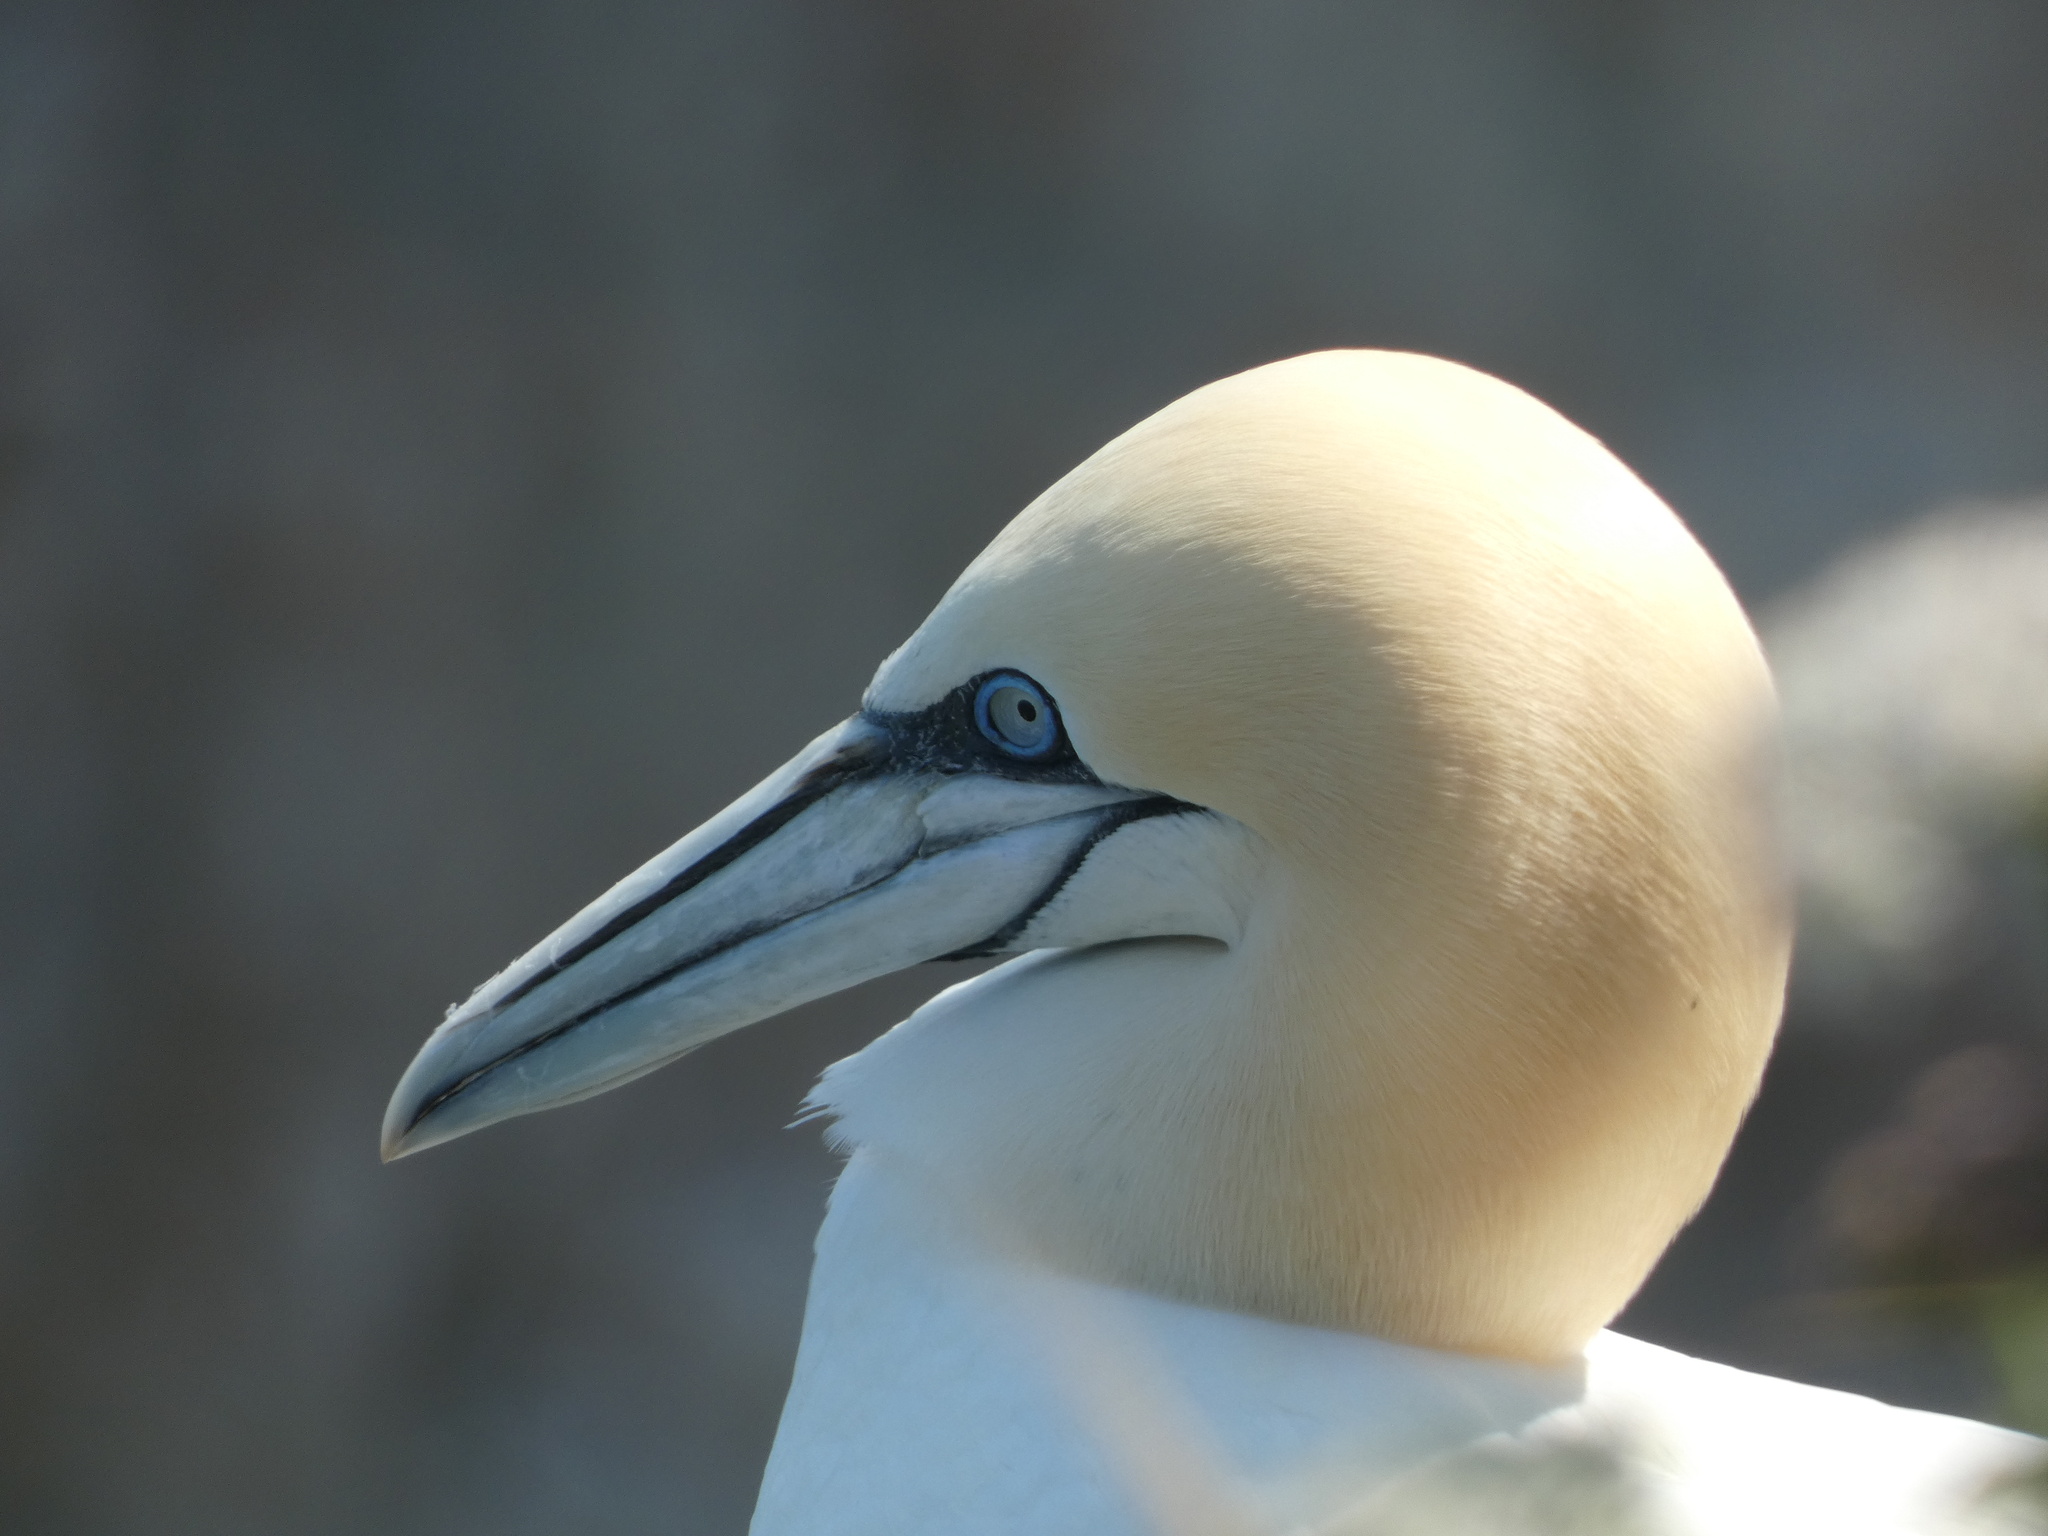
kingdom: Animalia
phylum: Chordata
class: Aves
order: Suliformes
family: Sulidae
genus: Morus
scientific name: Morus bassanus
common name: Northern gannet
